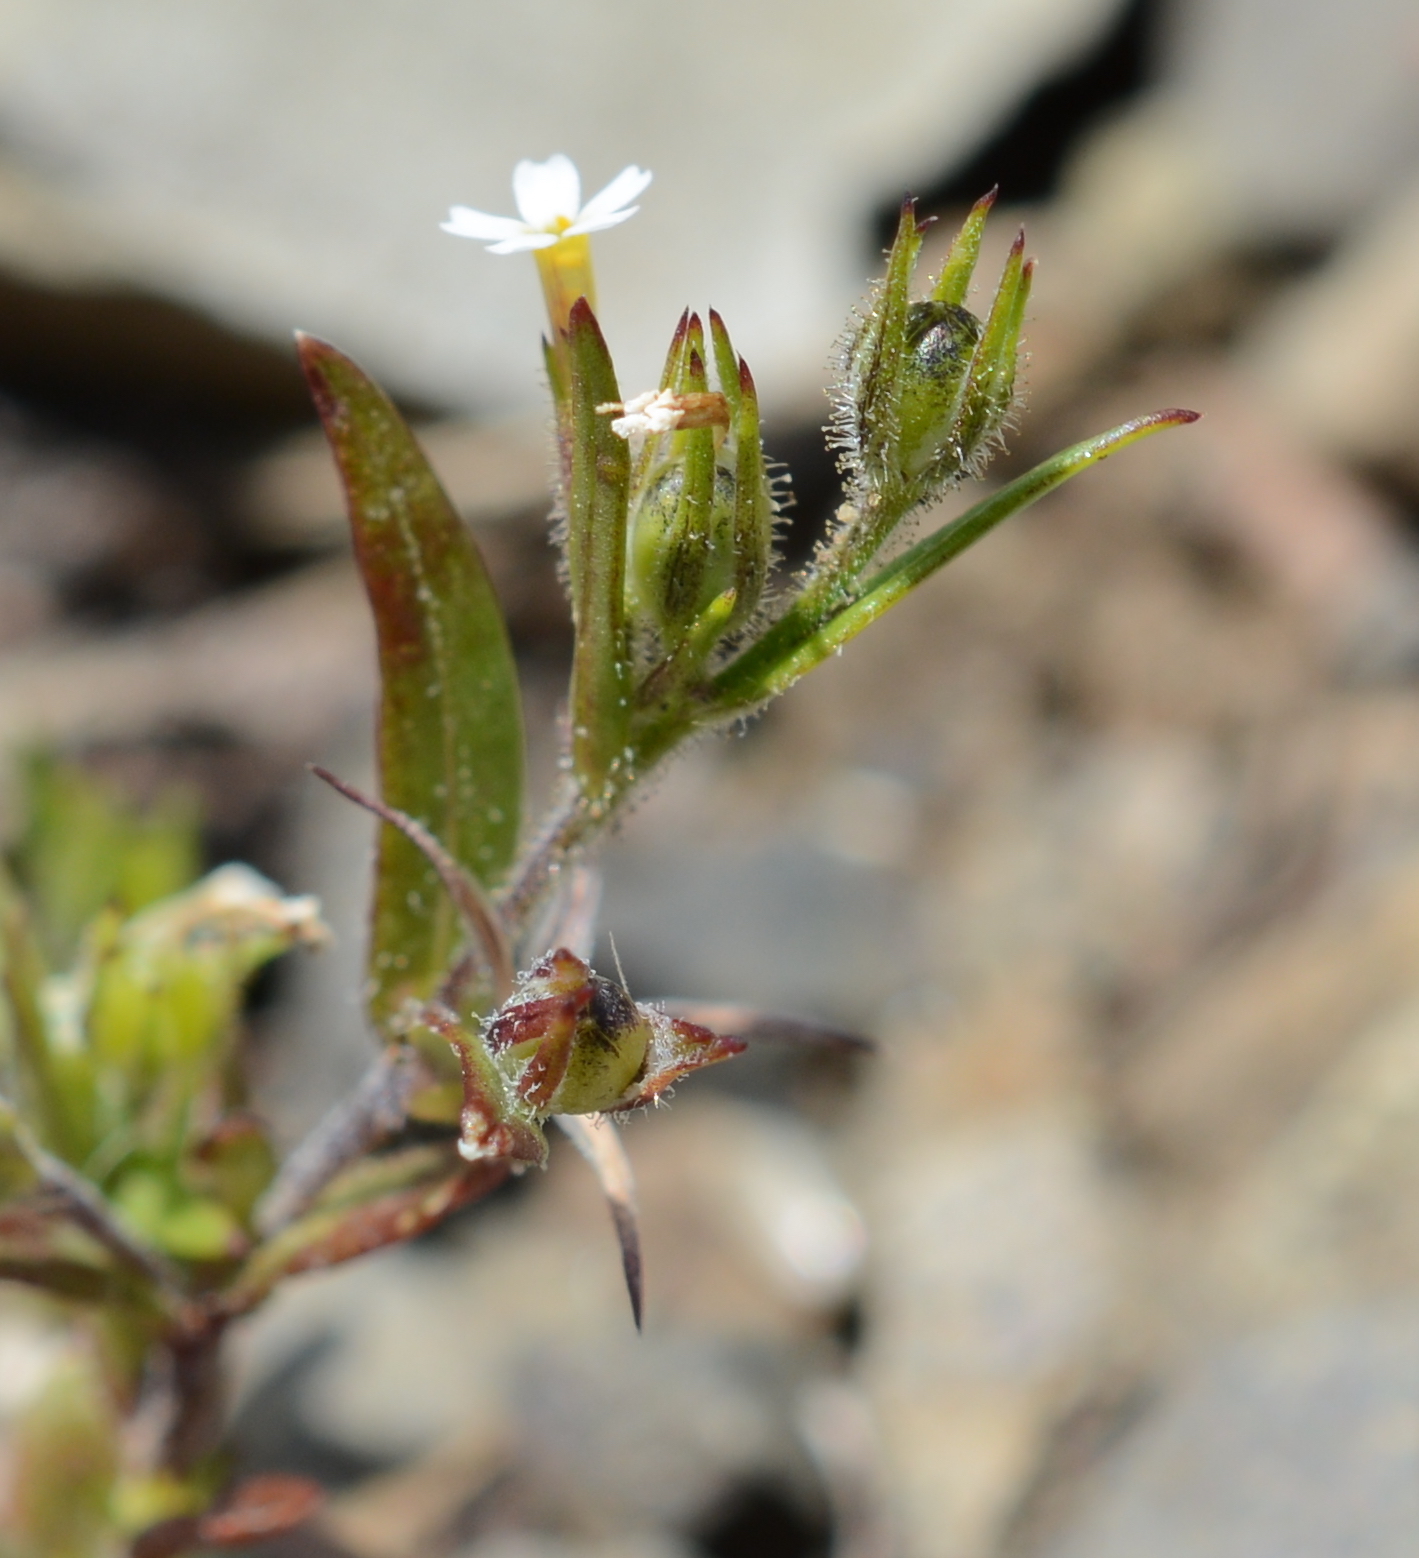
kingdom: Plantae
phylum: Tracheophyta
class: Magnoliopsida
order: Ericales
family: Polemoniaceae
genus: Phlox
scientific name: Phlox gracilis
